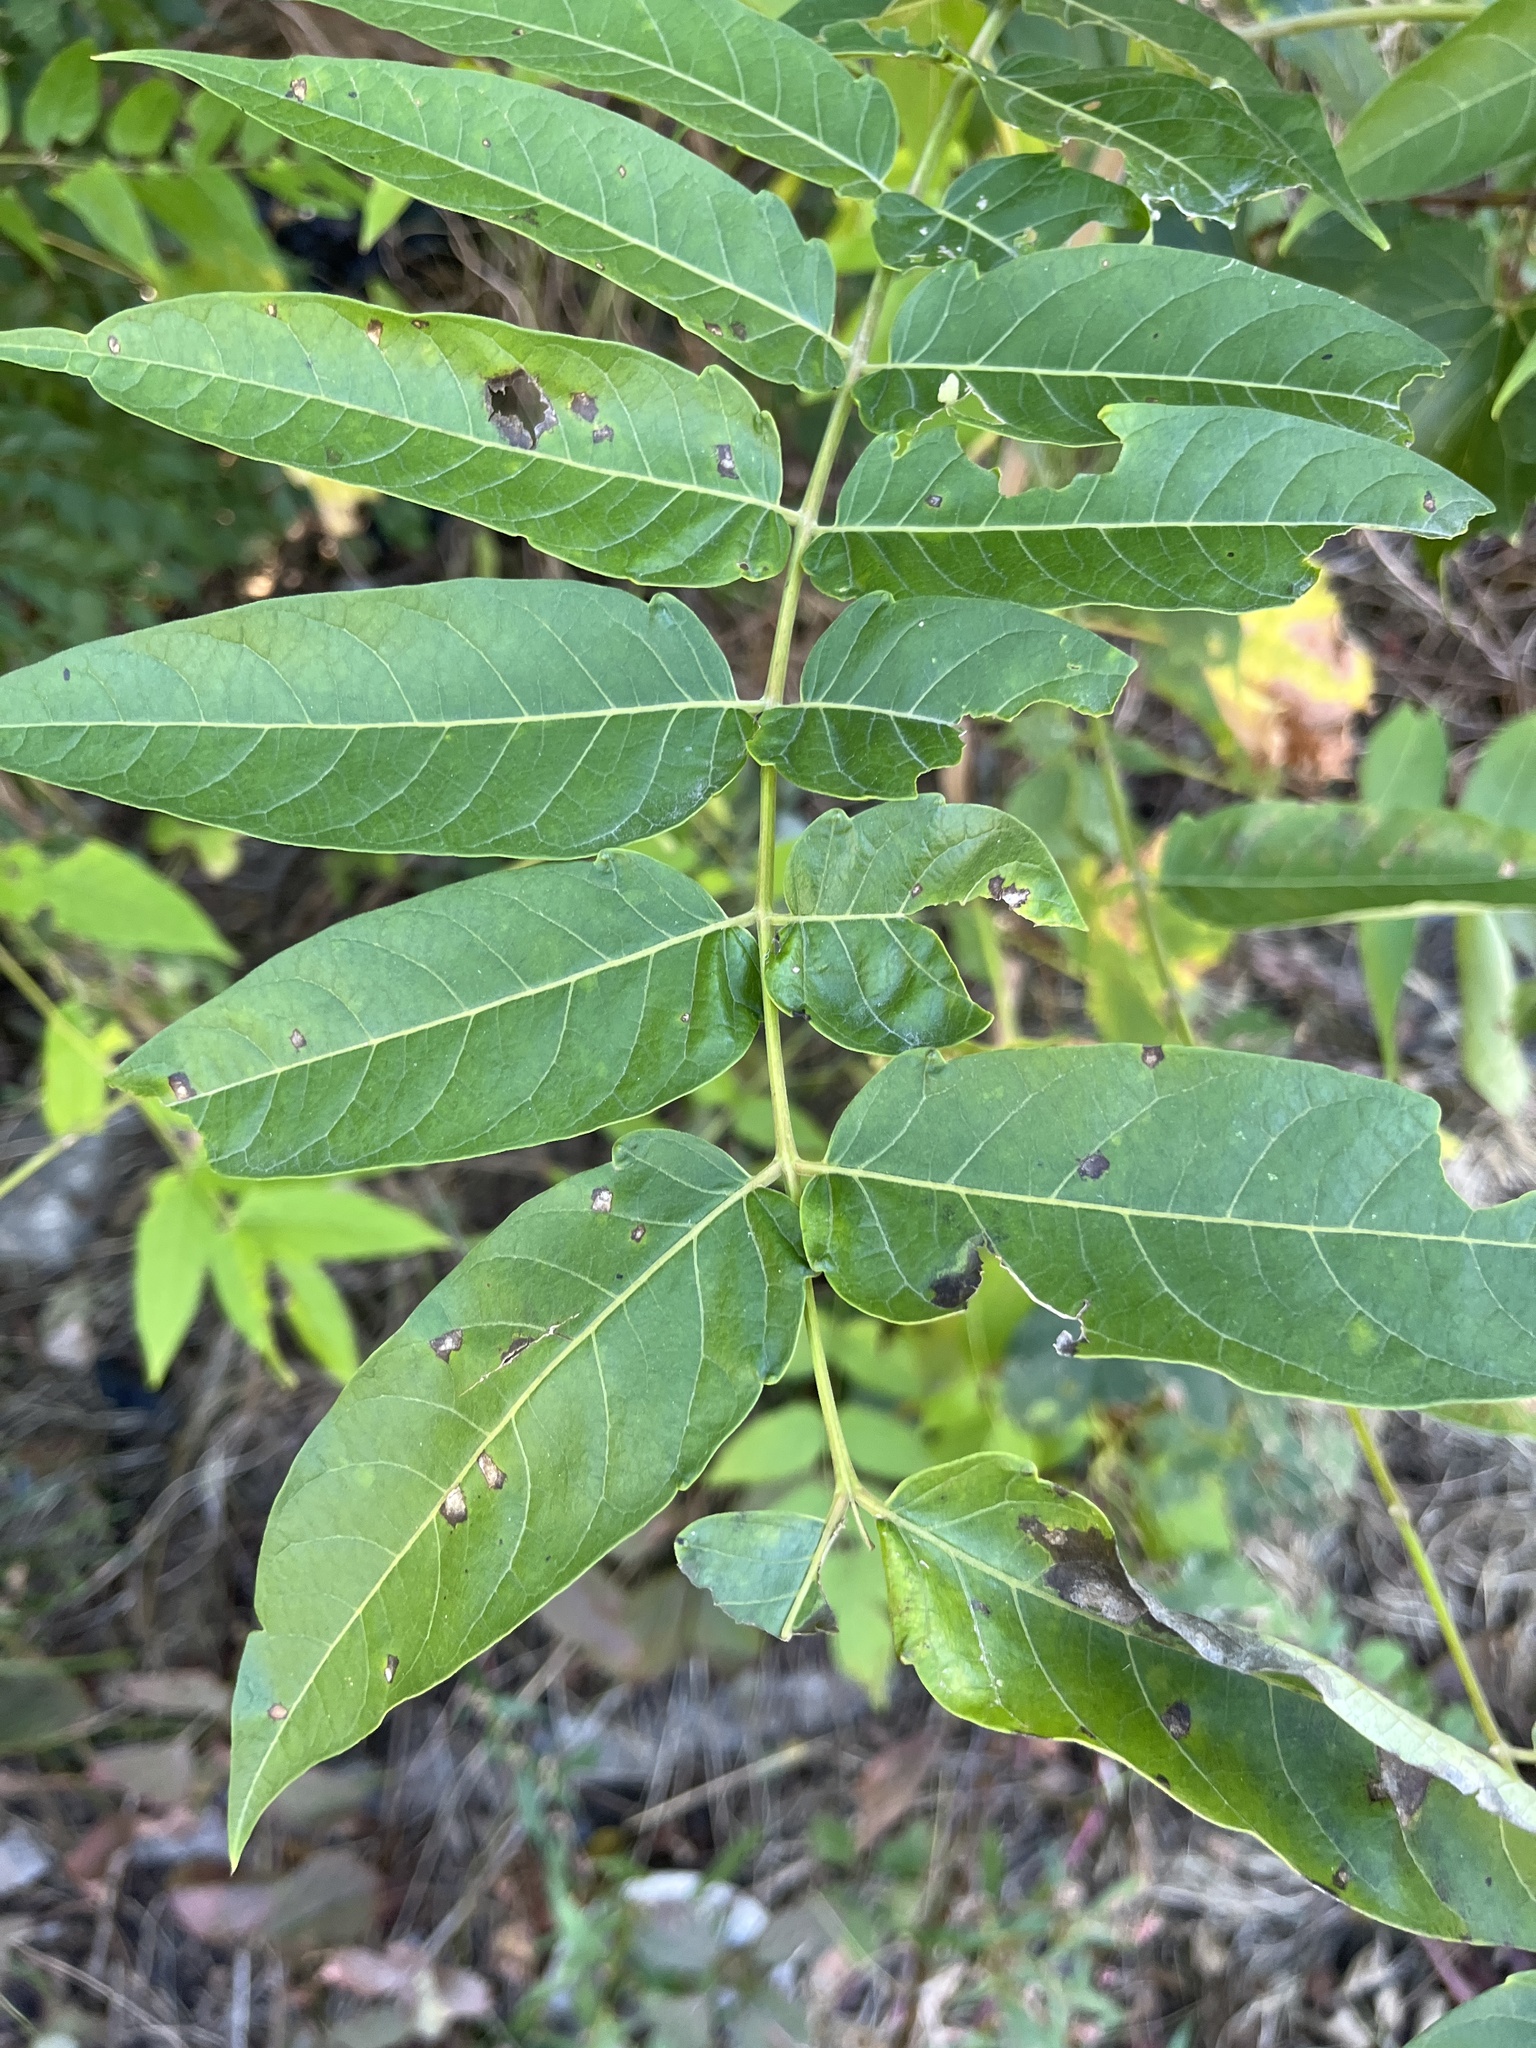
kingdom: Plantae
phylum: Tracheophyta
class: Magnoliopsida
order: Sapindales
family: Simaroubaceae
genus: Ailanthus
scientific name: Ailanthus altissima
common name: Tree-of-heaven
